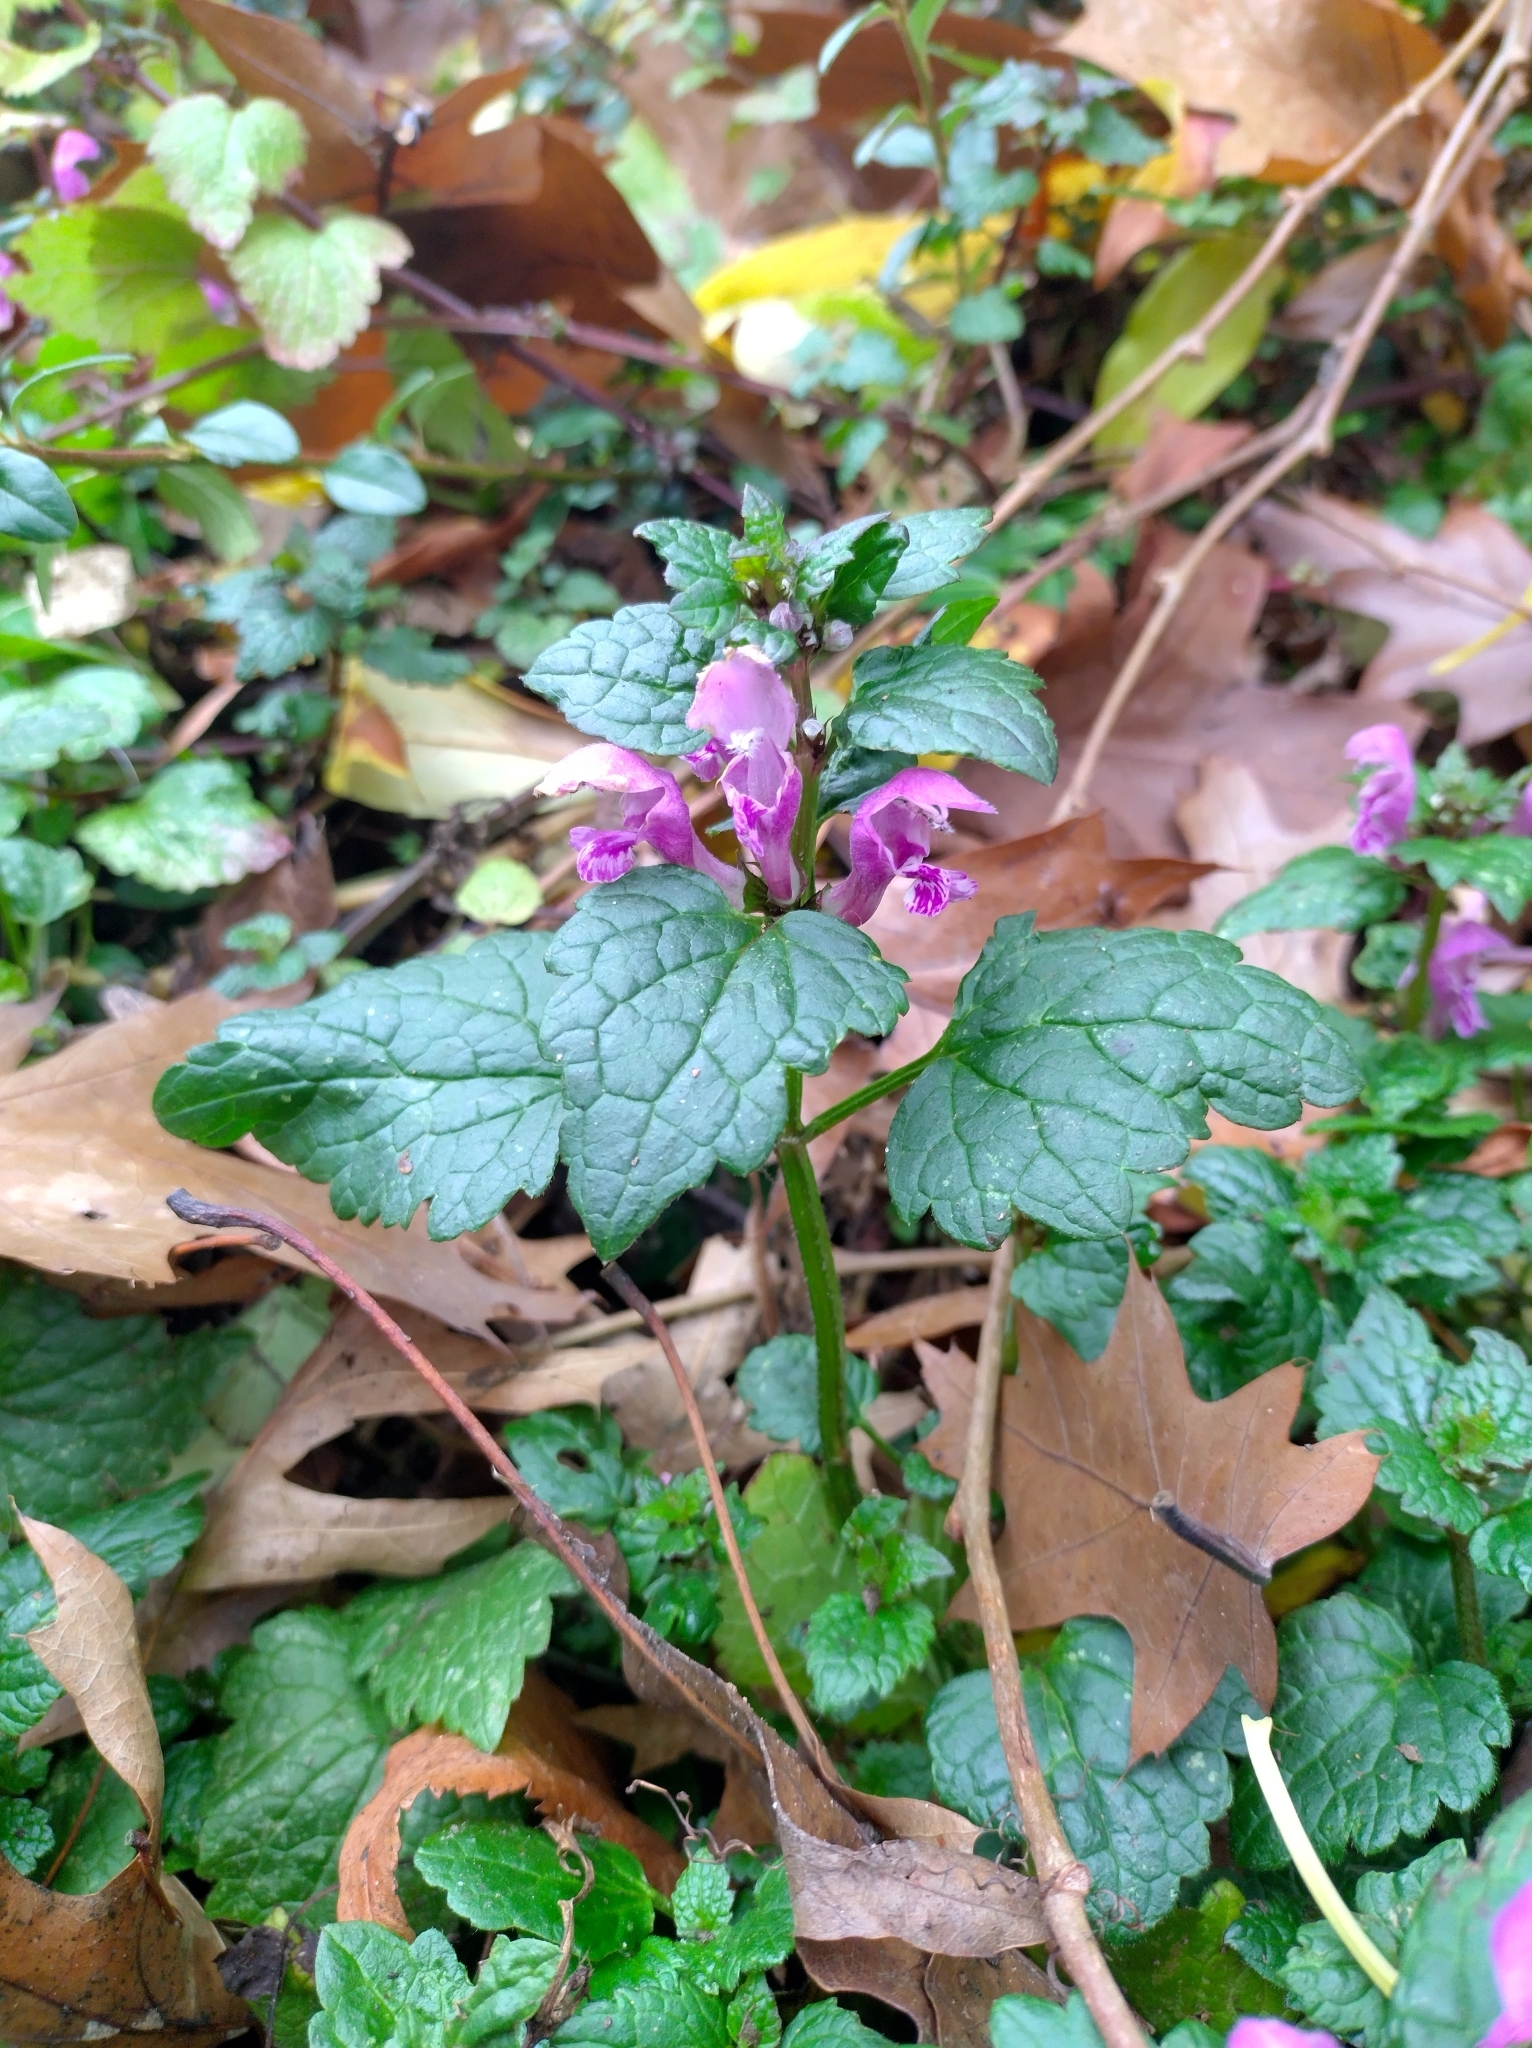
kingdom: Plantae
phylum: Tracheophyta
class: Magnoliopsida
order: Lamiales
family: Lamiaceae
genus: Lamium
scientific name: Lamium maculatum
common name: Spotted dead-nettle
